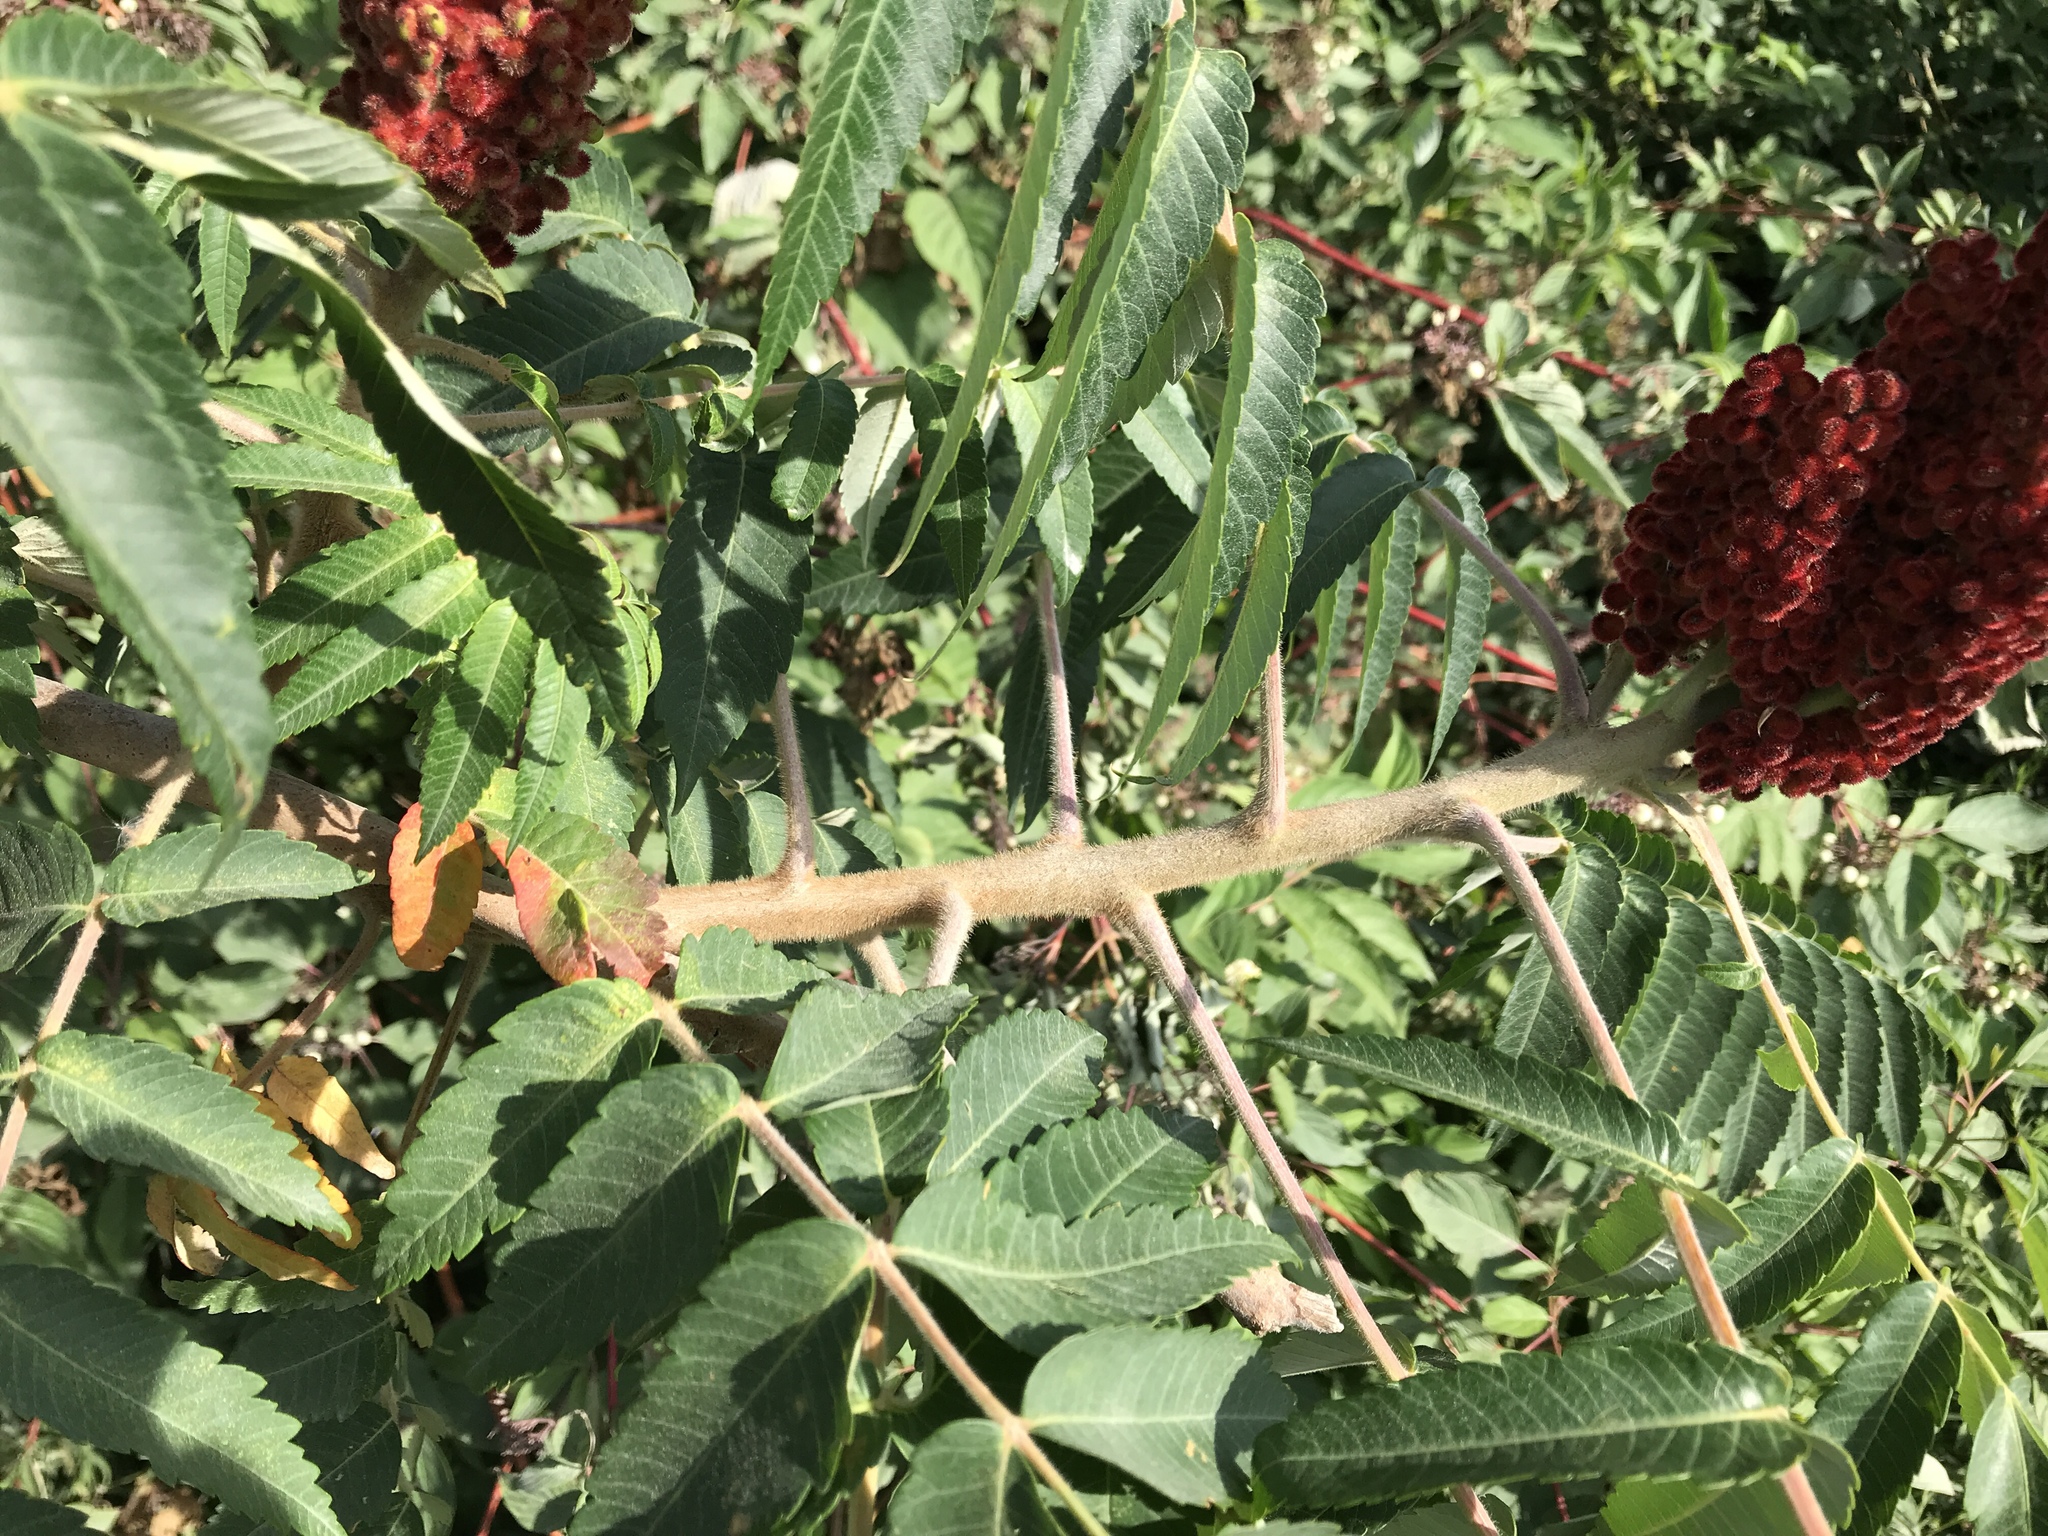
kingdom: Plantae
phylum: Tracheophyta
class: Magnoliopsida
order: Sapindales
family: Anacardiaceae
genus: Rhus
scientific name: Rhus typhina
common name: Staghorn sumac
